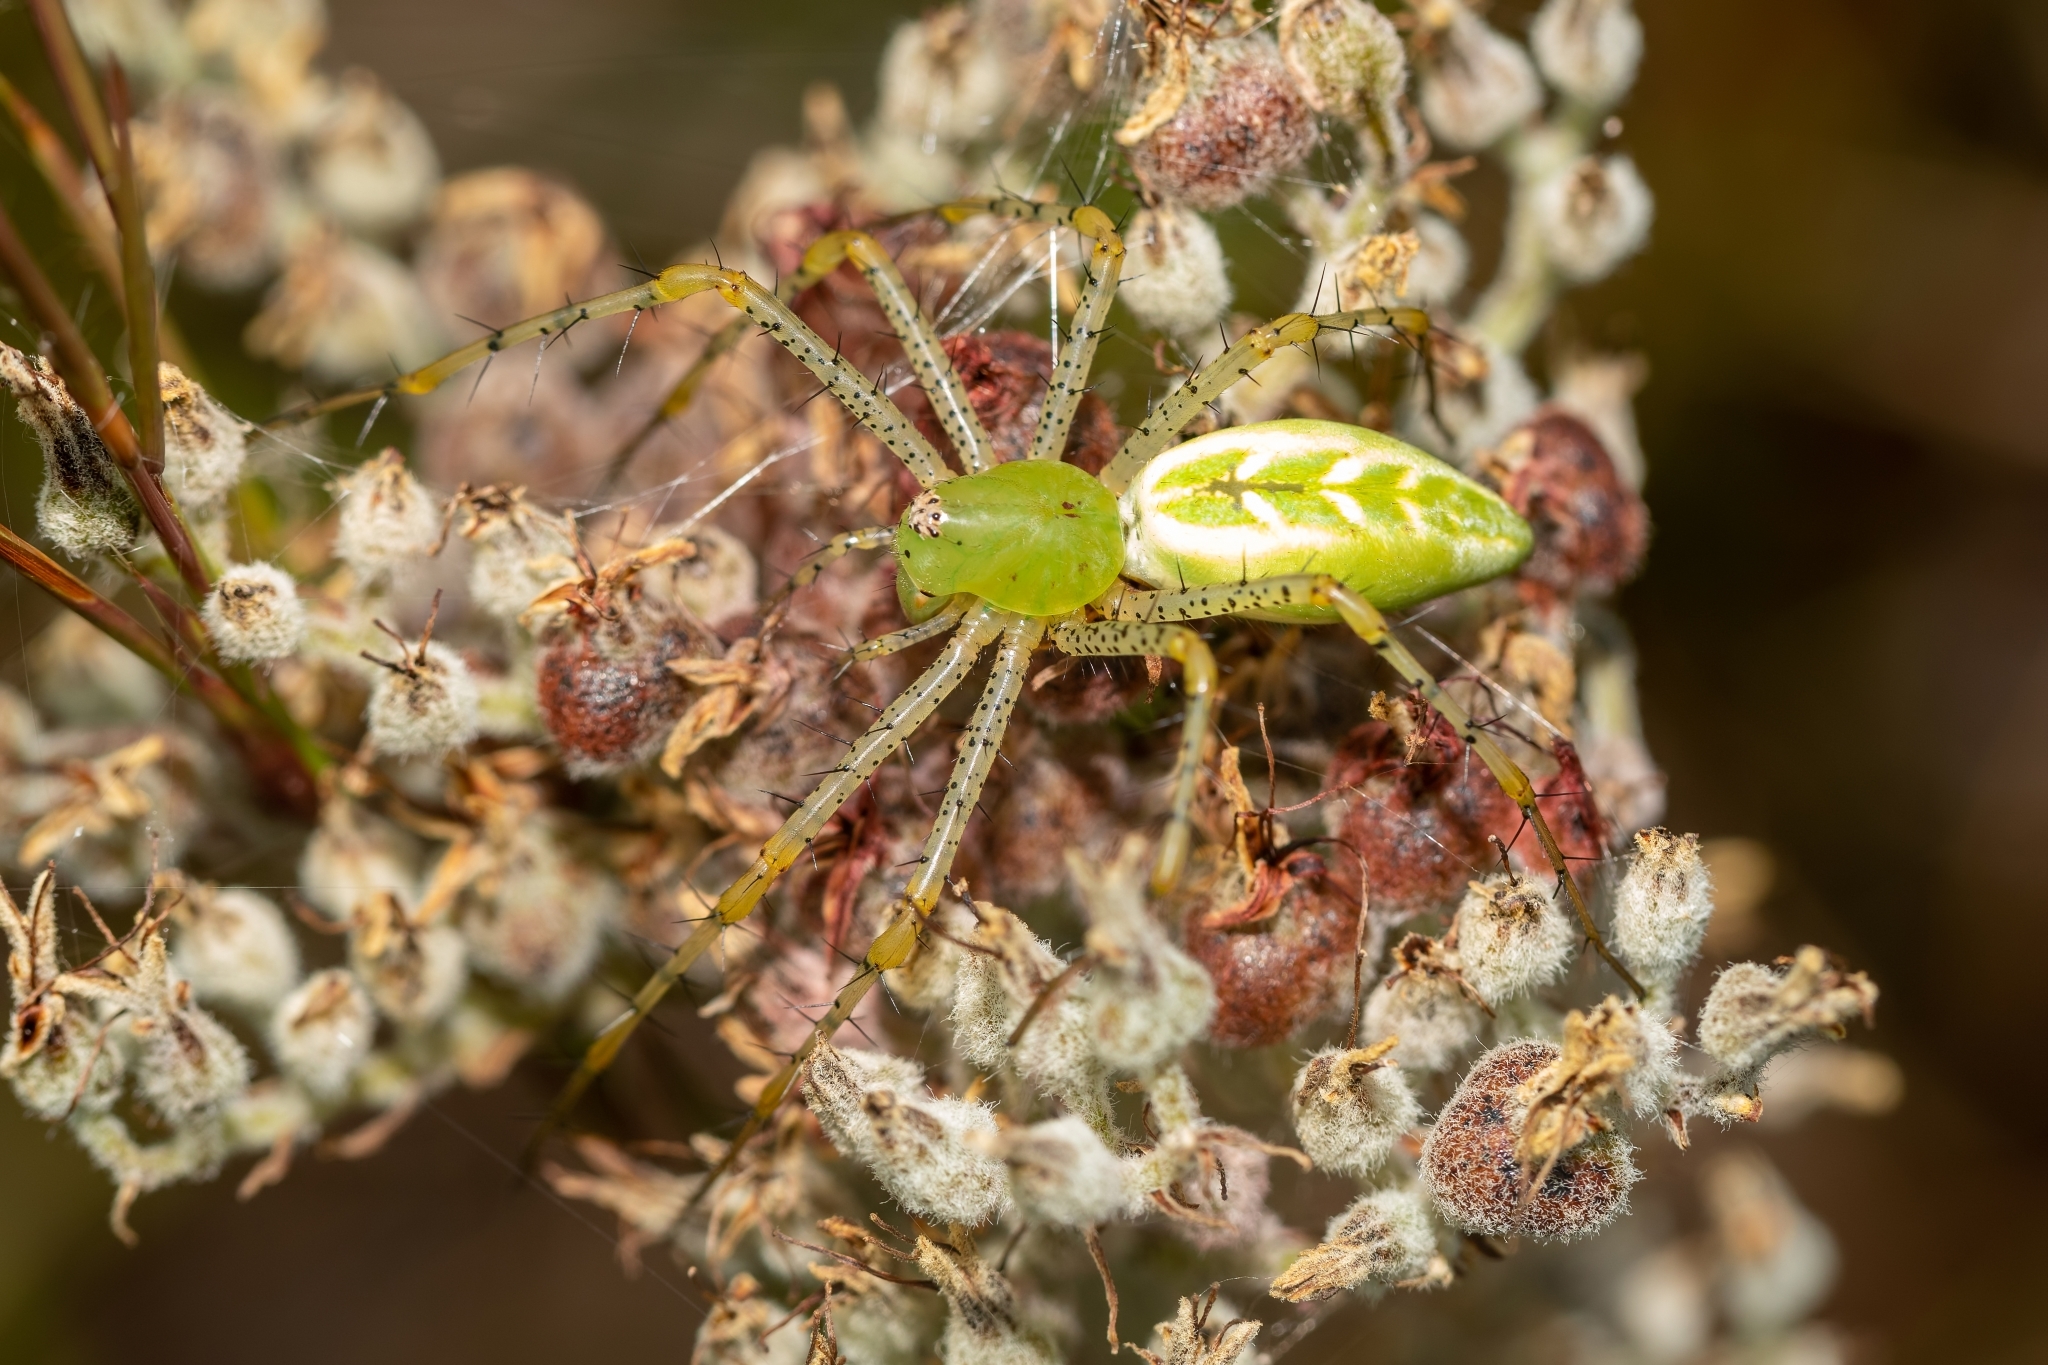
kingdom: Animalia
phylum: Arthropoda
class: Arachnida
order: Araneae
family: Oxyopidae
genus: Peucetia
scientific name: Peucetia viridans
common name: Lynx spiders
